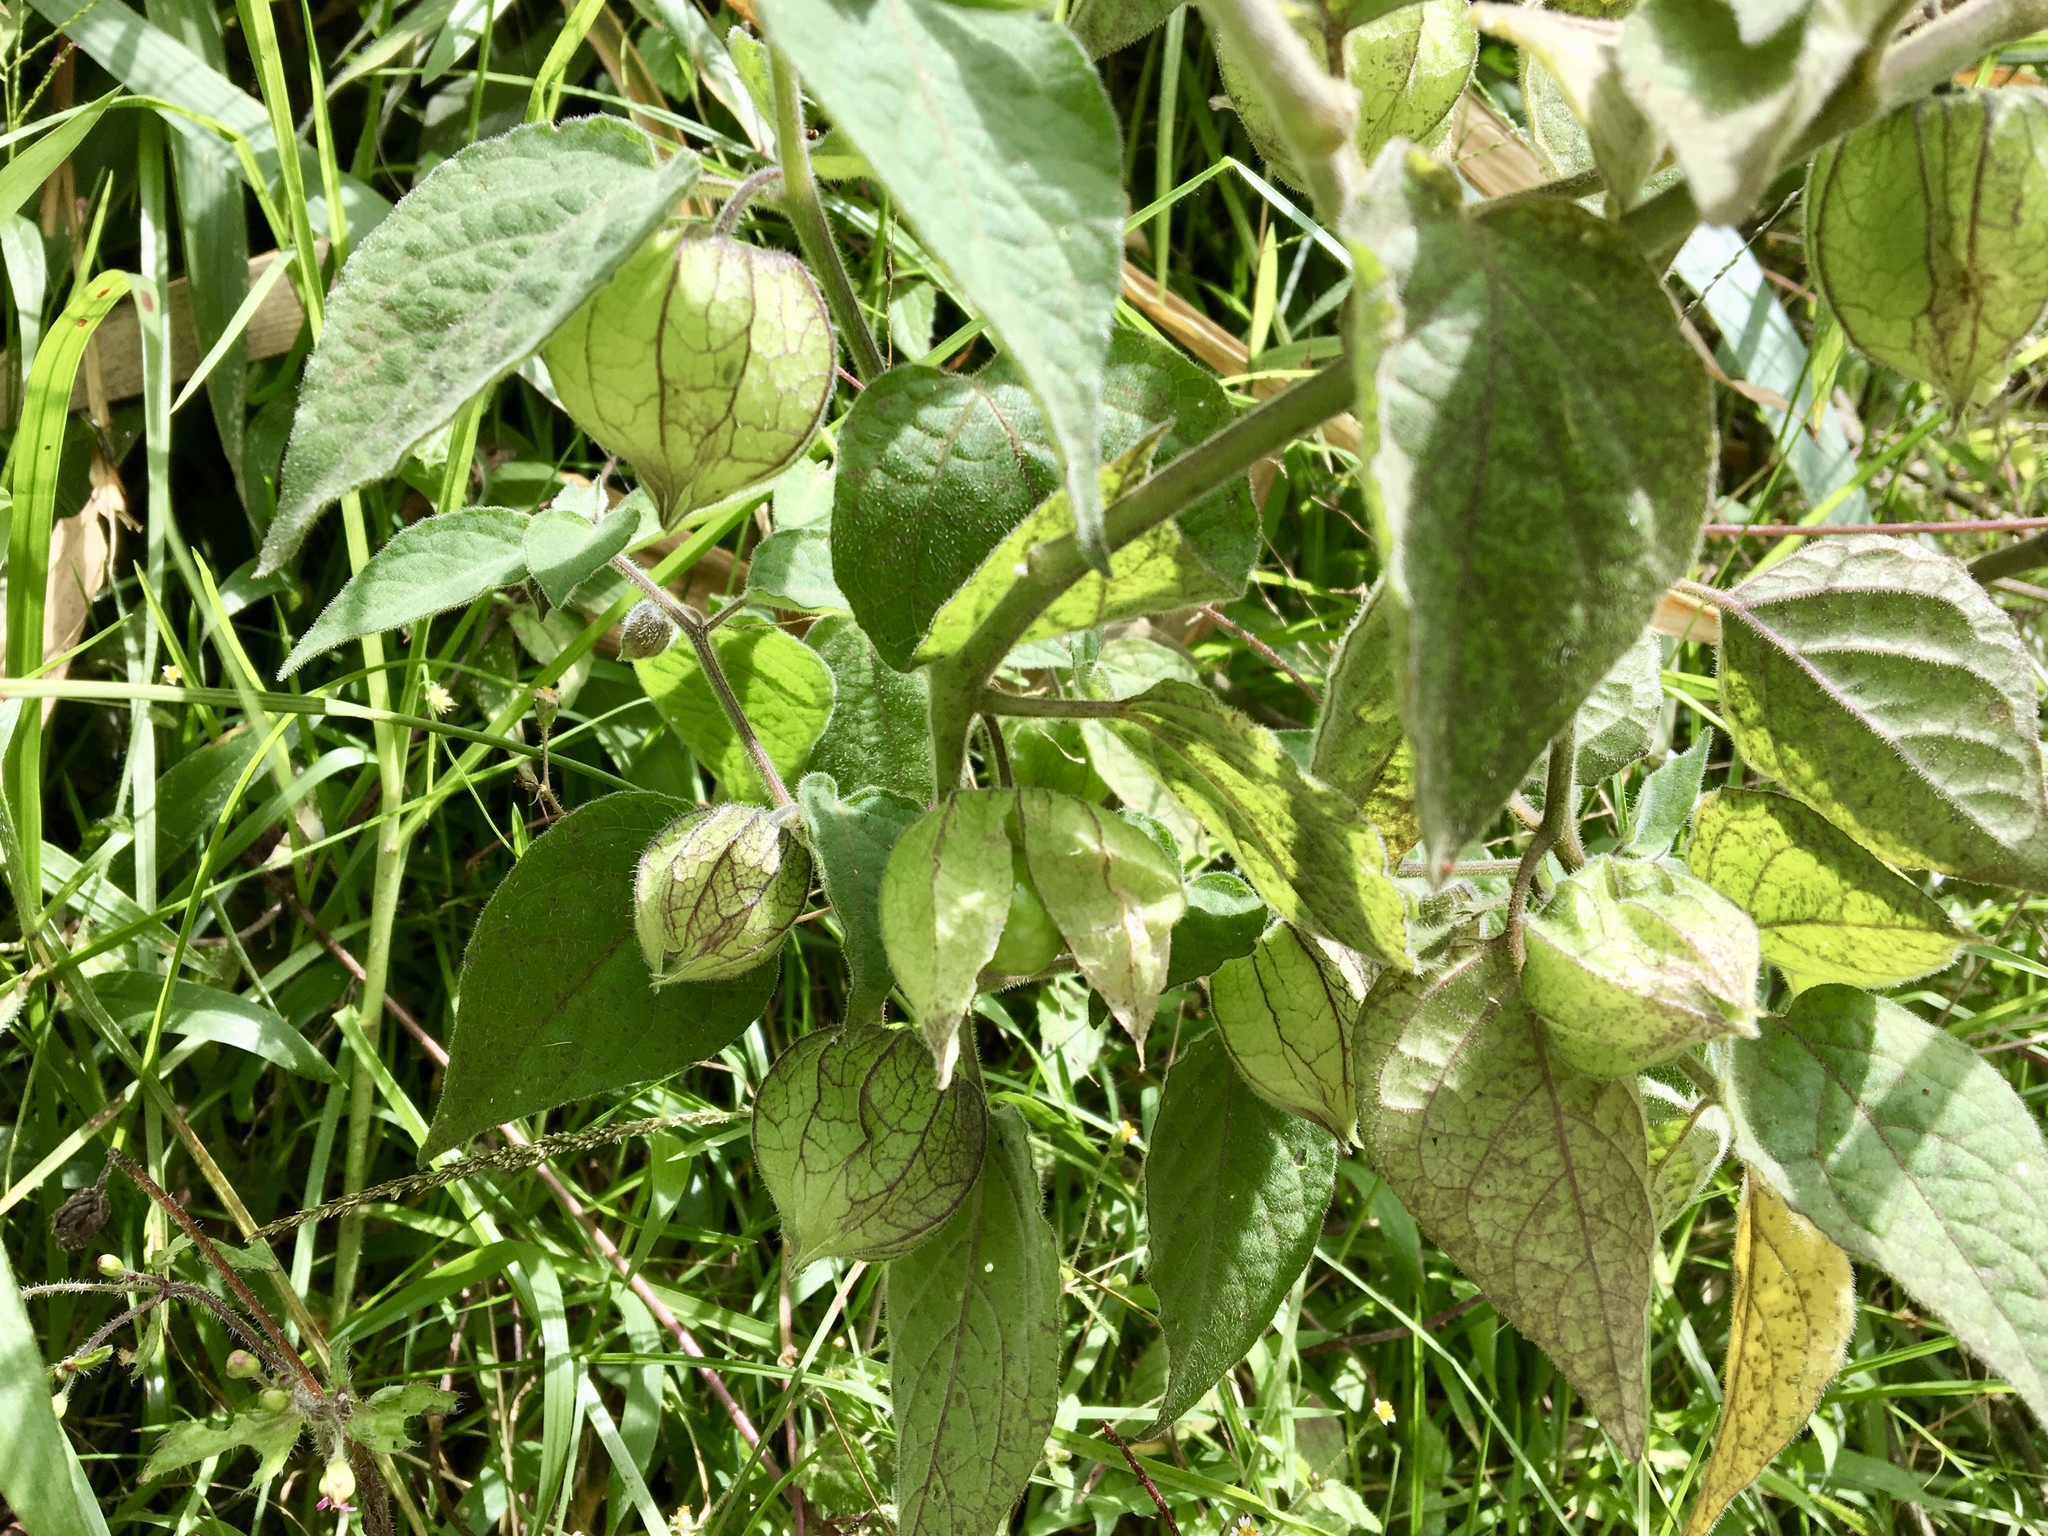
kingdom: Plantae
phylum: Tracheophyta
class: Magnoliopsida
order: Solanales
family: Solanaceae
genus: Physalis
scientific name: Physalis peruviana
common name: Cape-gooseberry
